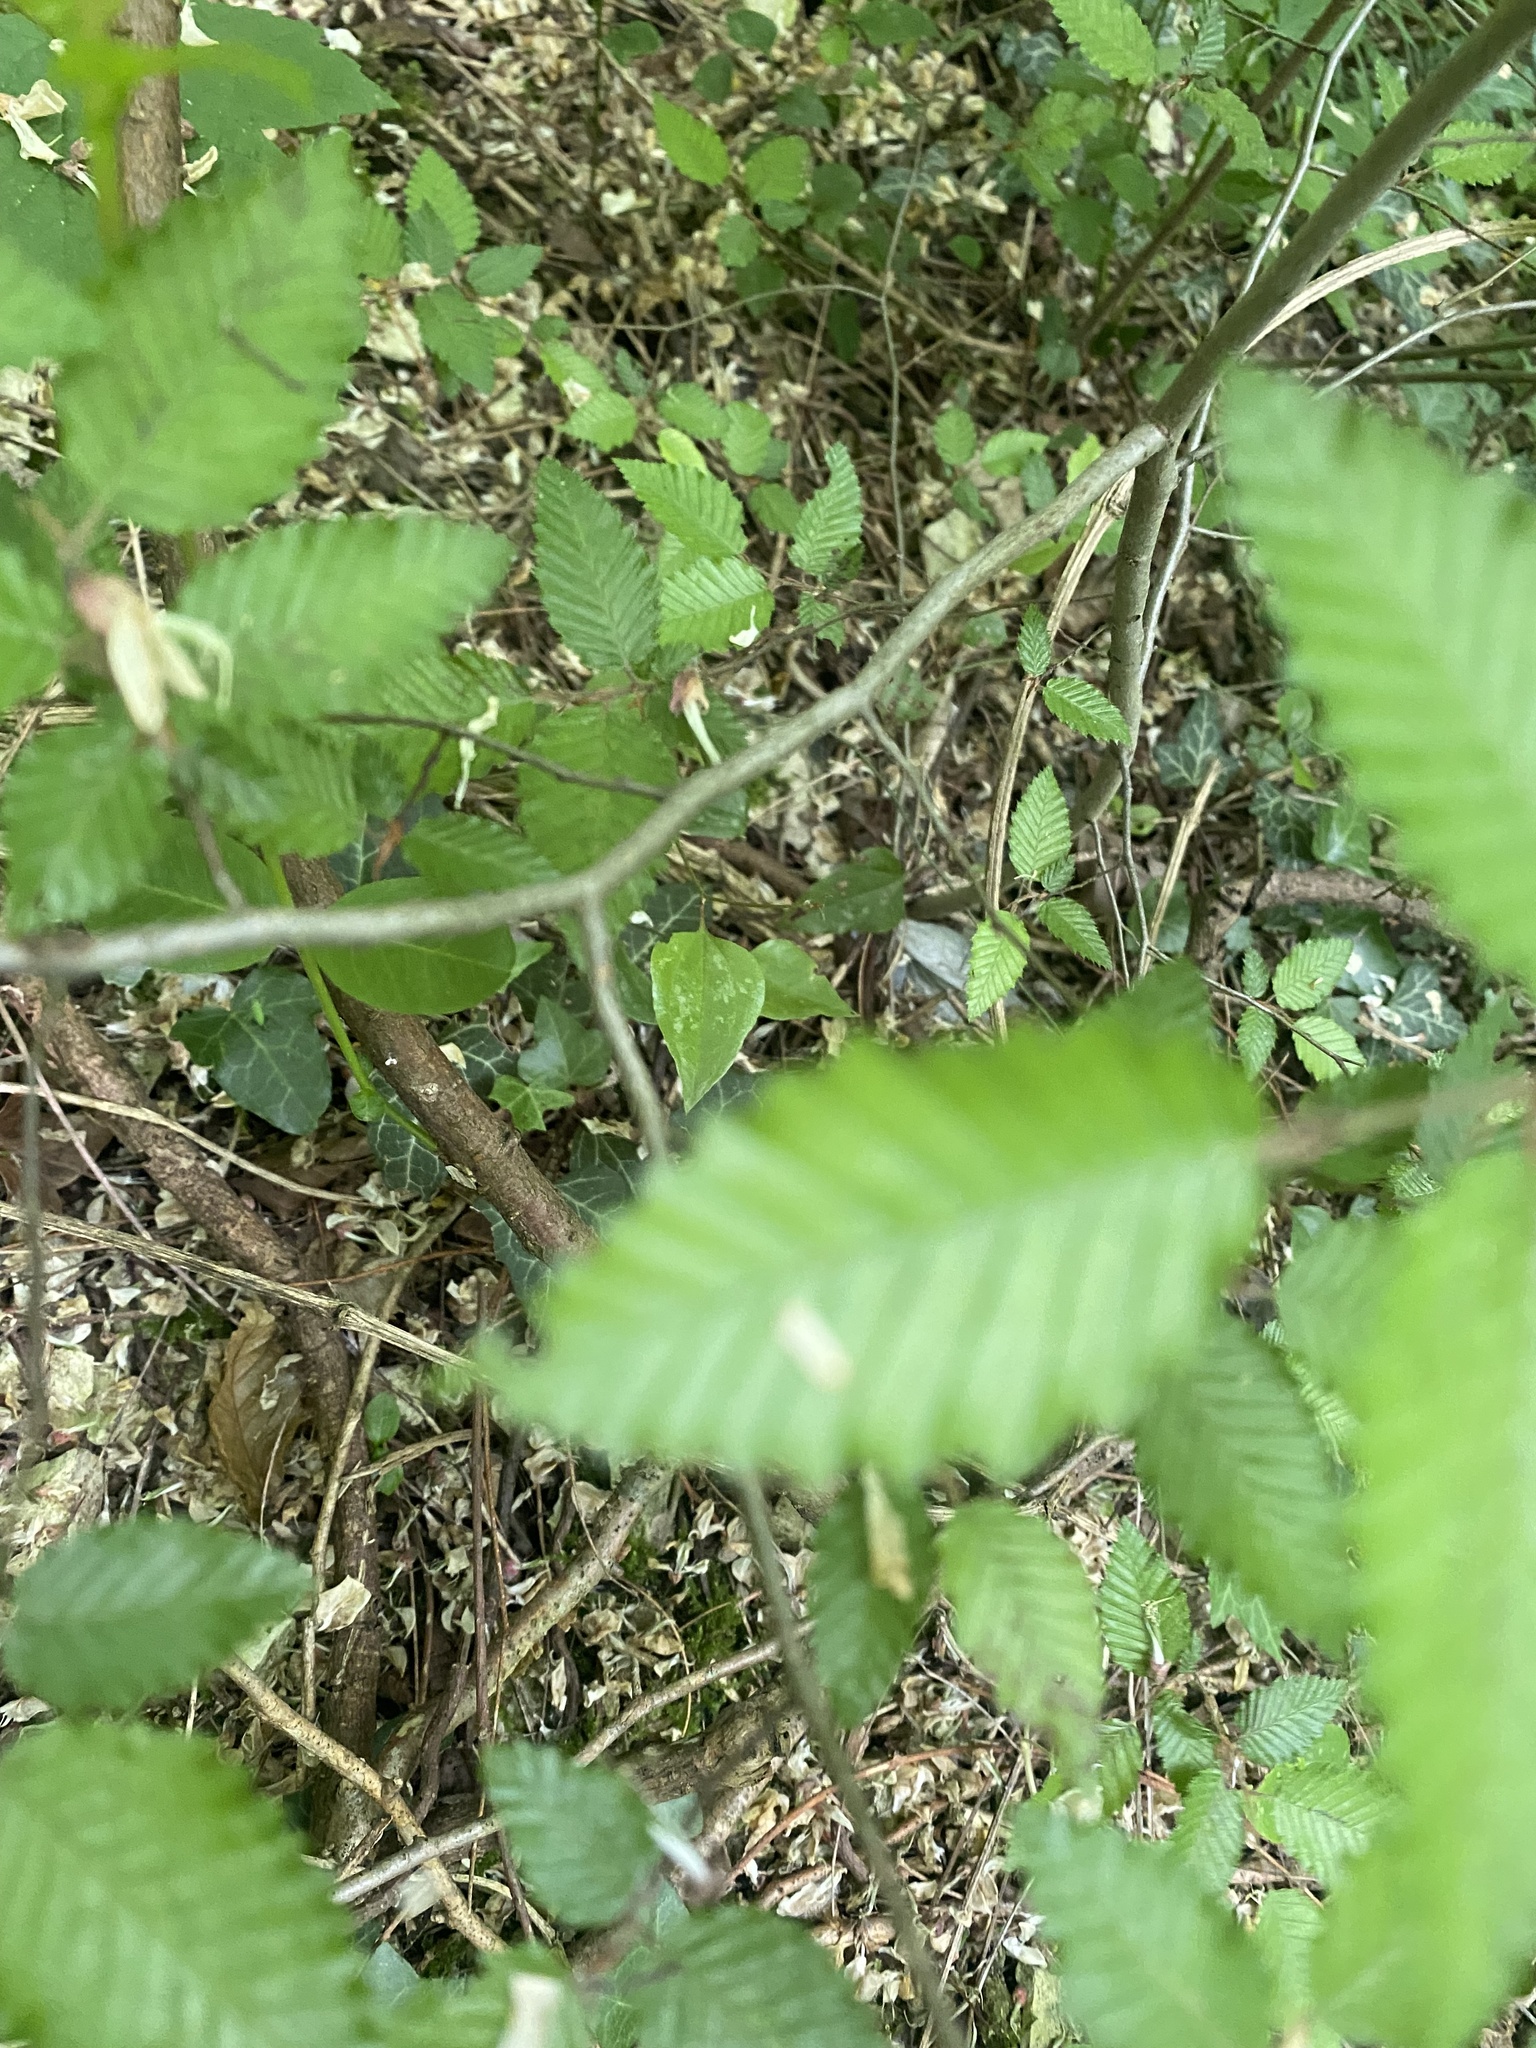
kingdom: Plantae
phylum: Tracheophyta
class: Magnoliopsida
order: Fagales
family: Betulaceae
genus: Carpinus
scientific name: Carpinus orientalis
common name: Eastern hornbeam
